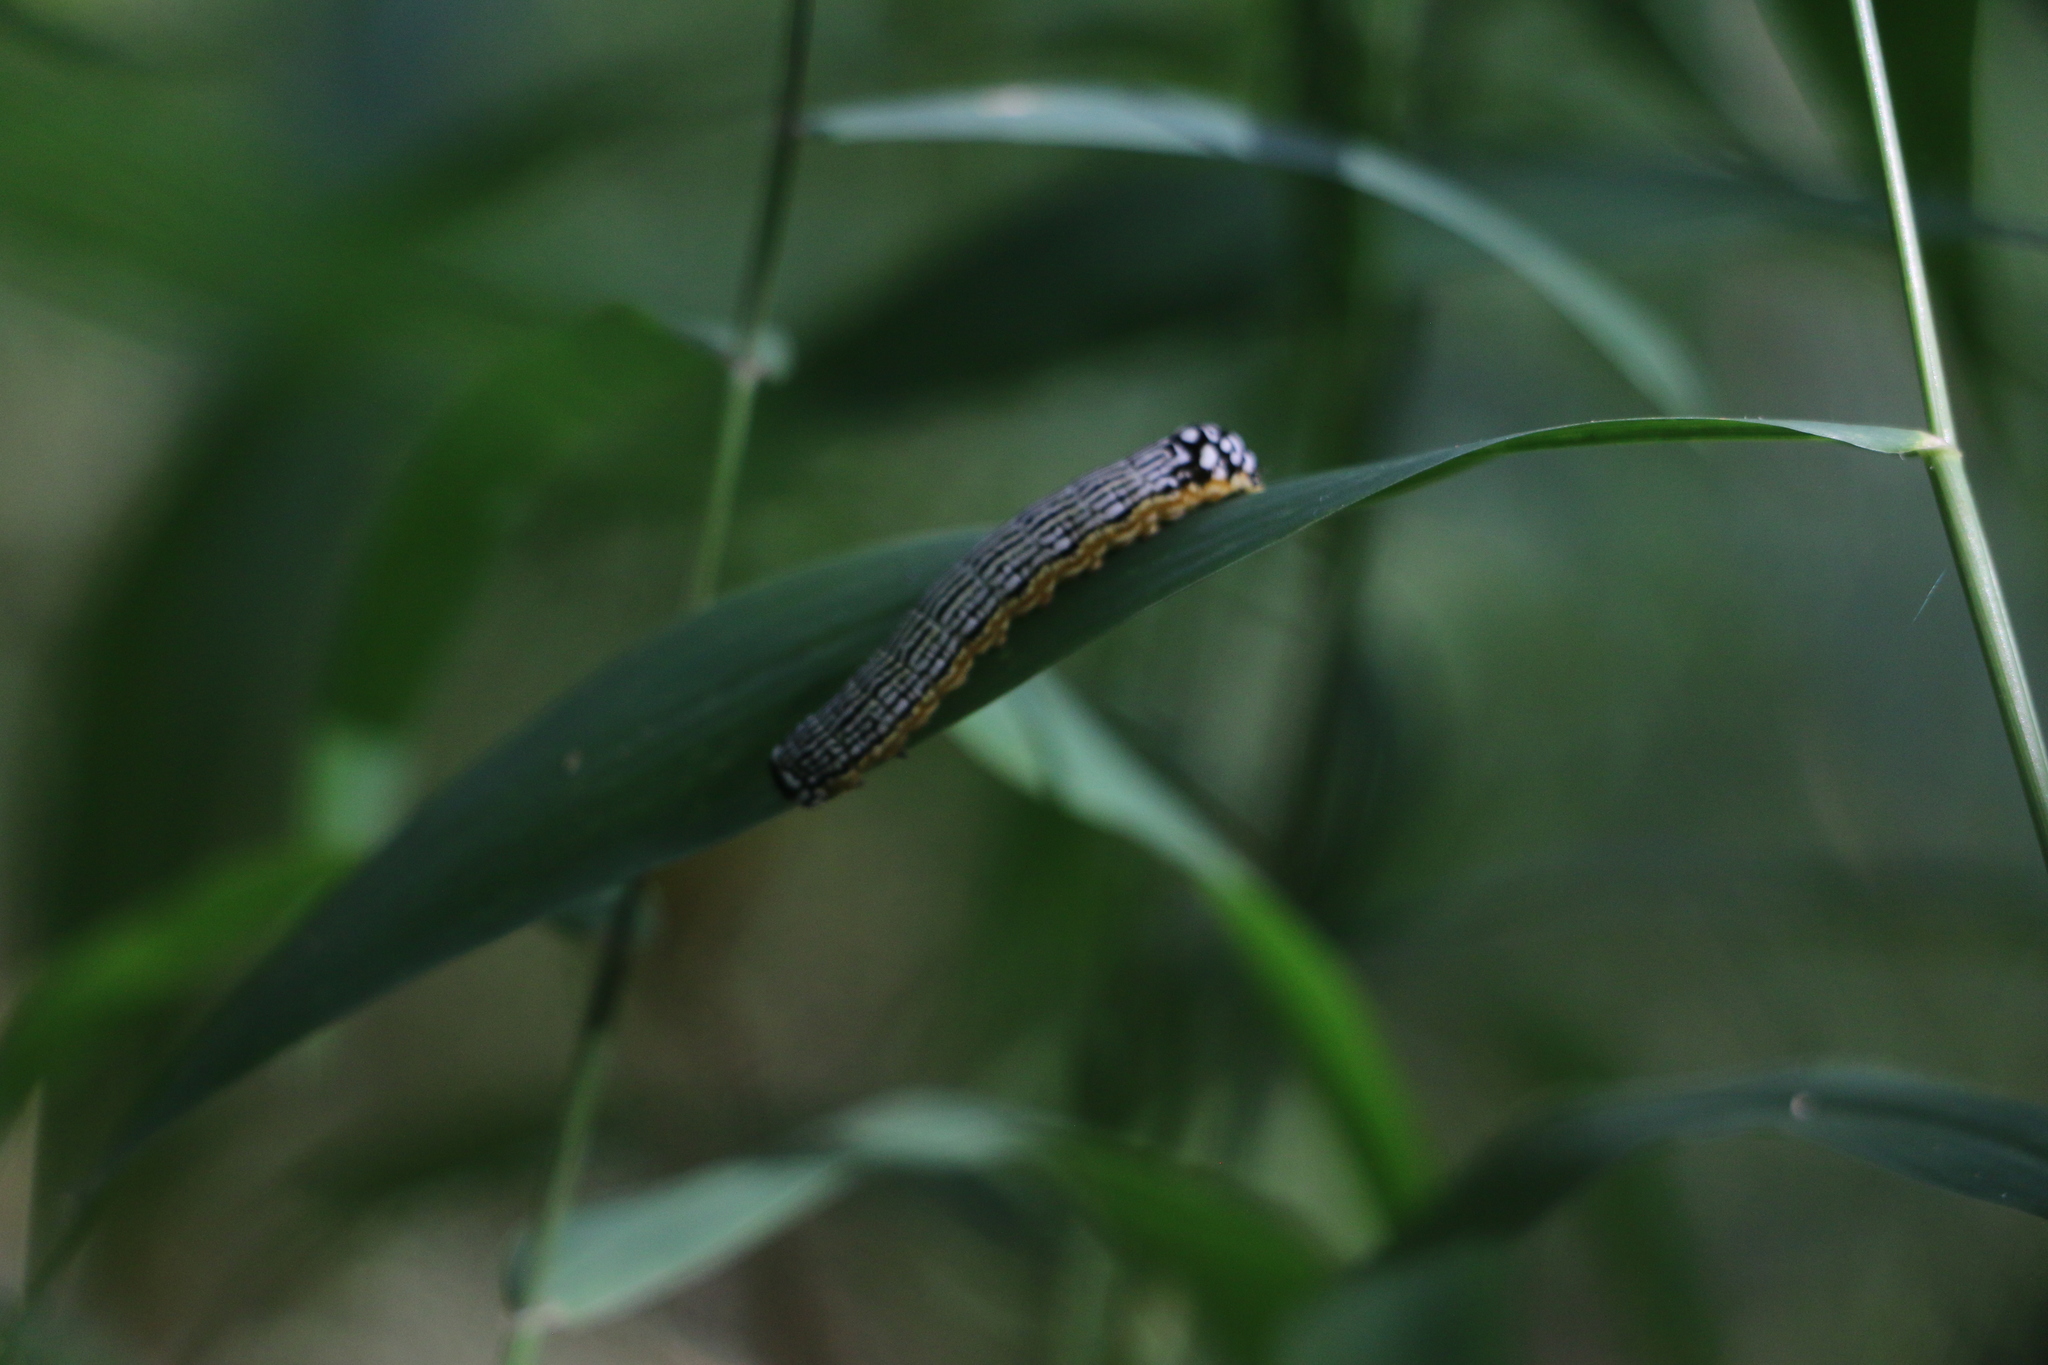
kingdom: Animalia
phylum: Arthropoda
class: Insecta
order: Lepidoptera
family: Noctuidae
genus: Phosphila
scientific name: Phosphila turbulenta
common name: Turbulent phosphila moth
